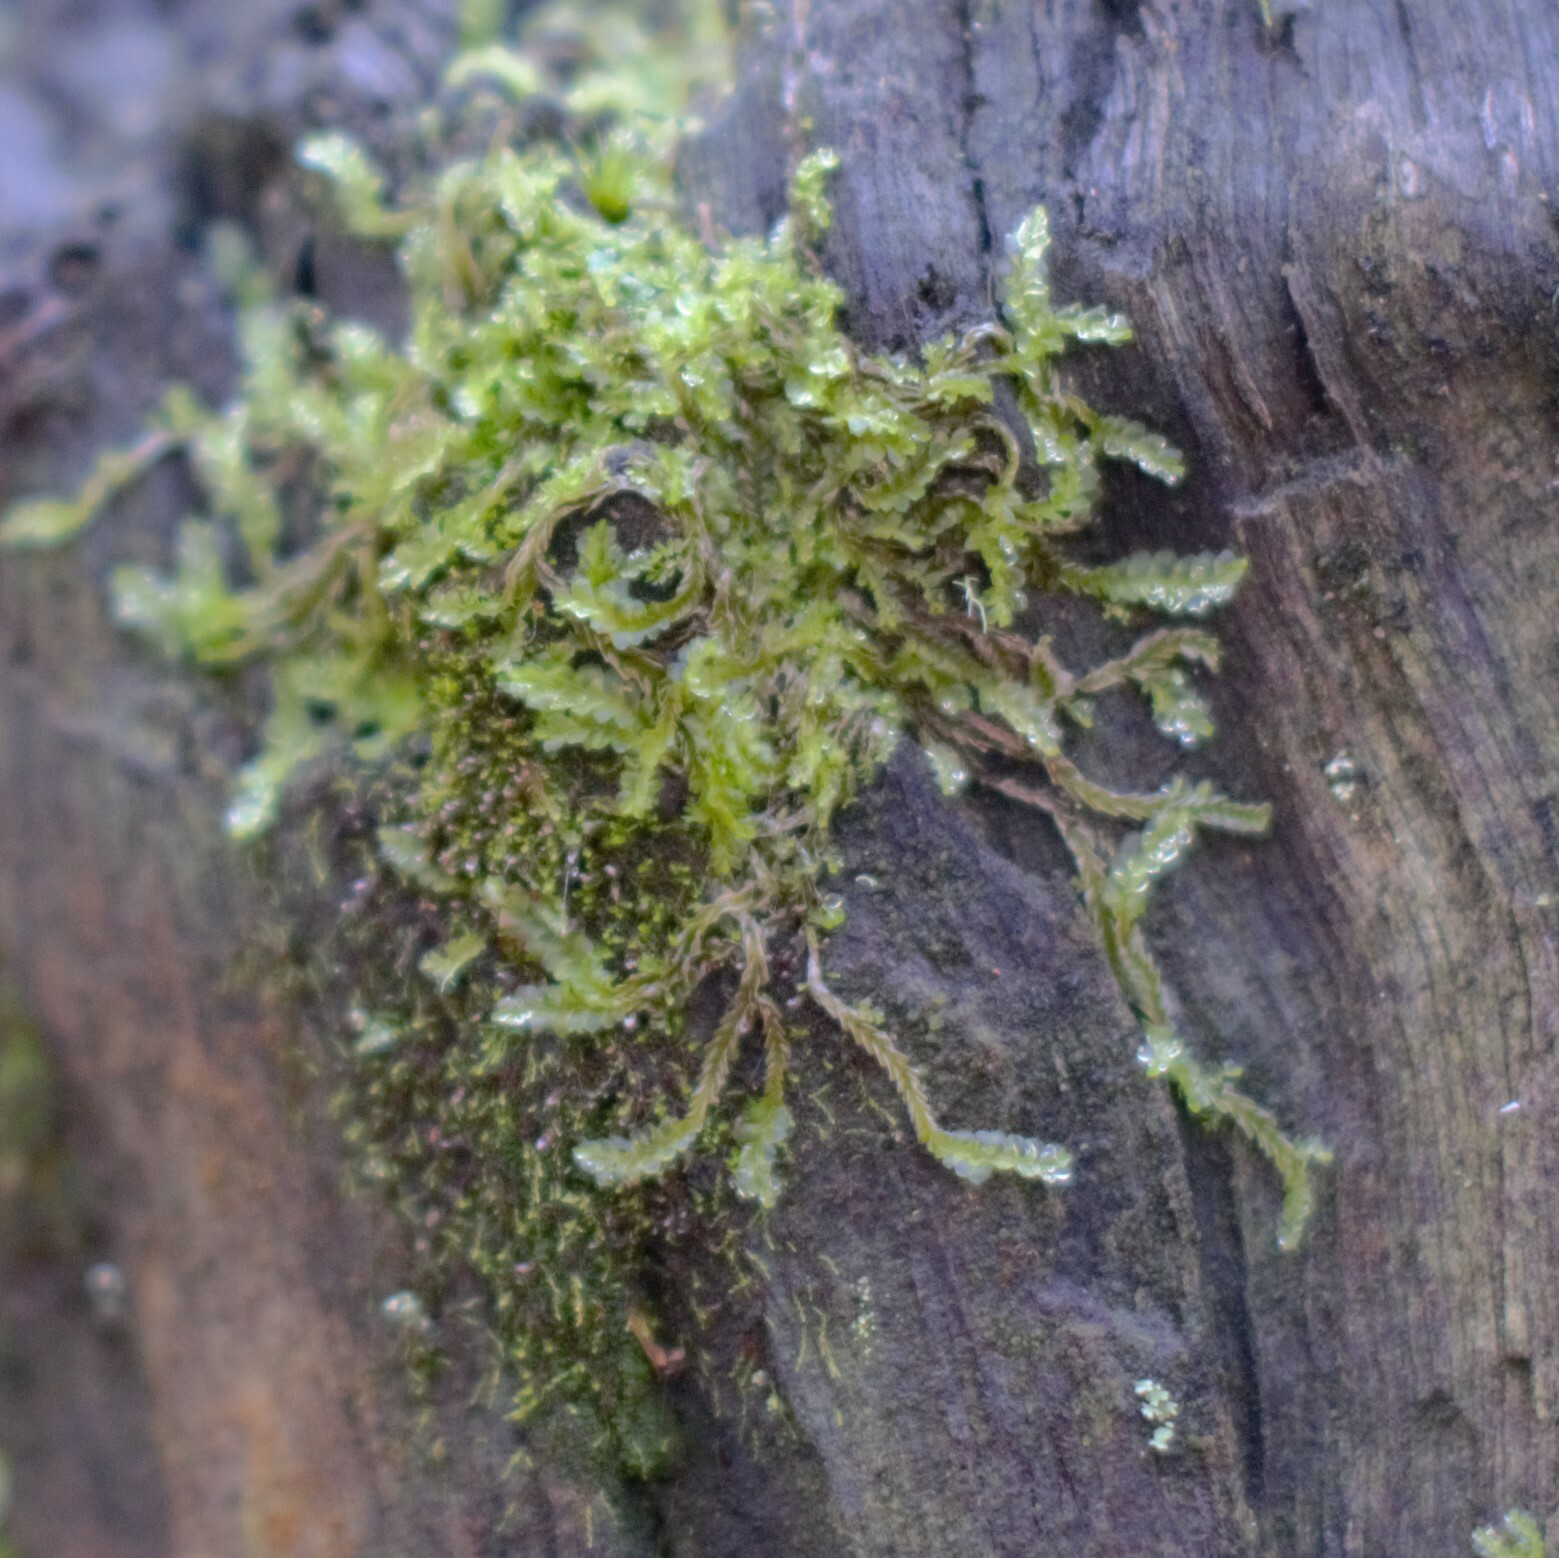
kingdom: Plantae
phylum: Marchantiophyta
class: Jungermanniopsida
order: Jungermanniales
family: Lophocoleaceae
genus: Lophocolea
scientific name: Lophocolea semiteres
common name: Southern crestwort
